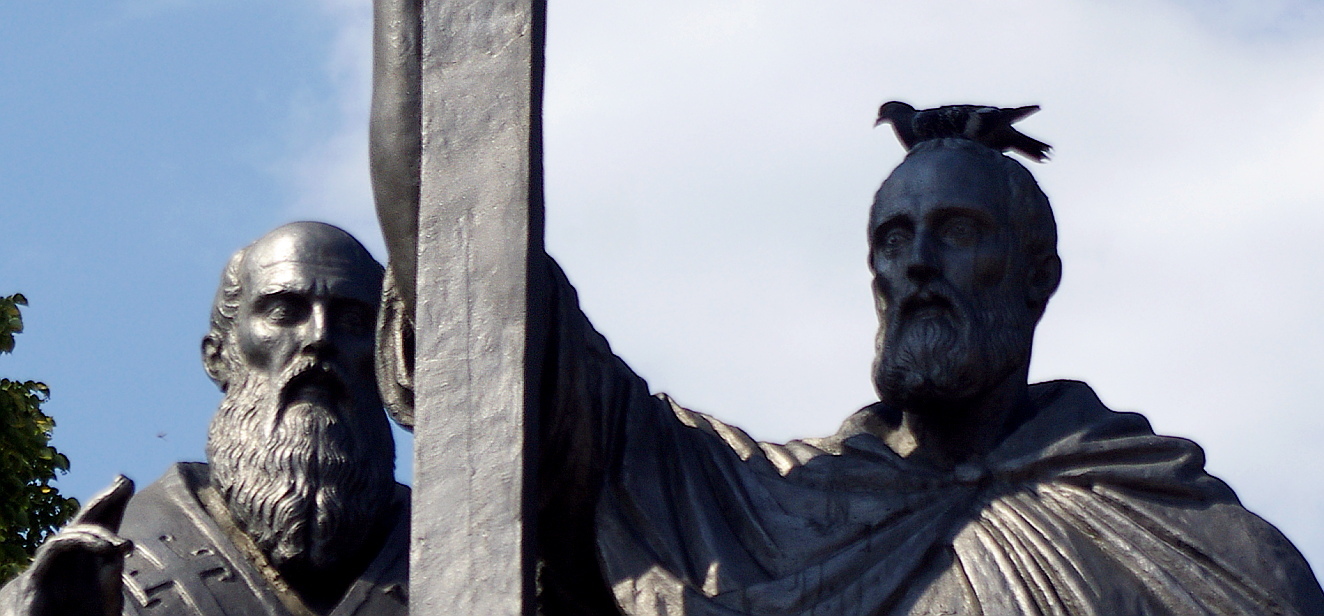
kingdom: Animalia
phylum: Chordata
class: Aves
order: Columbiformes
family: Columbidae
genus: Columba
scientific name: Columba livia
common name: Rock pigeon
